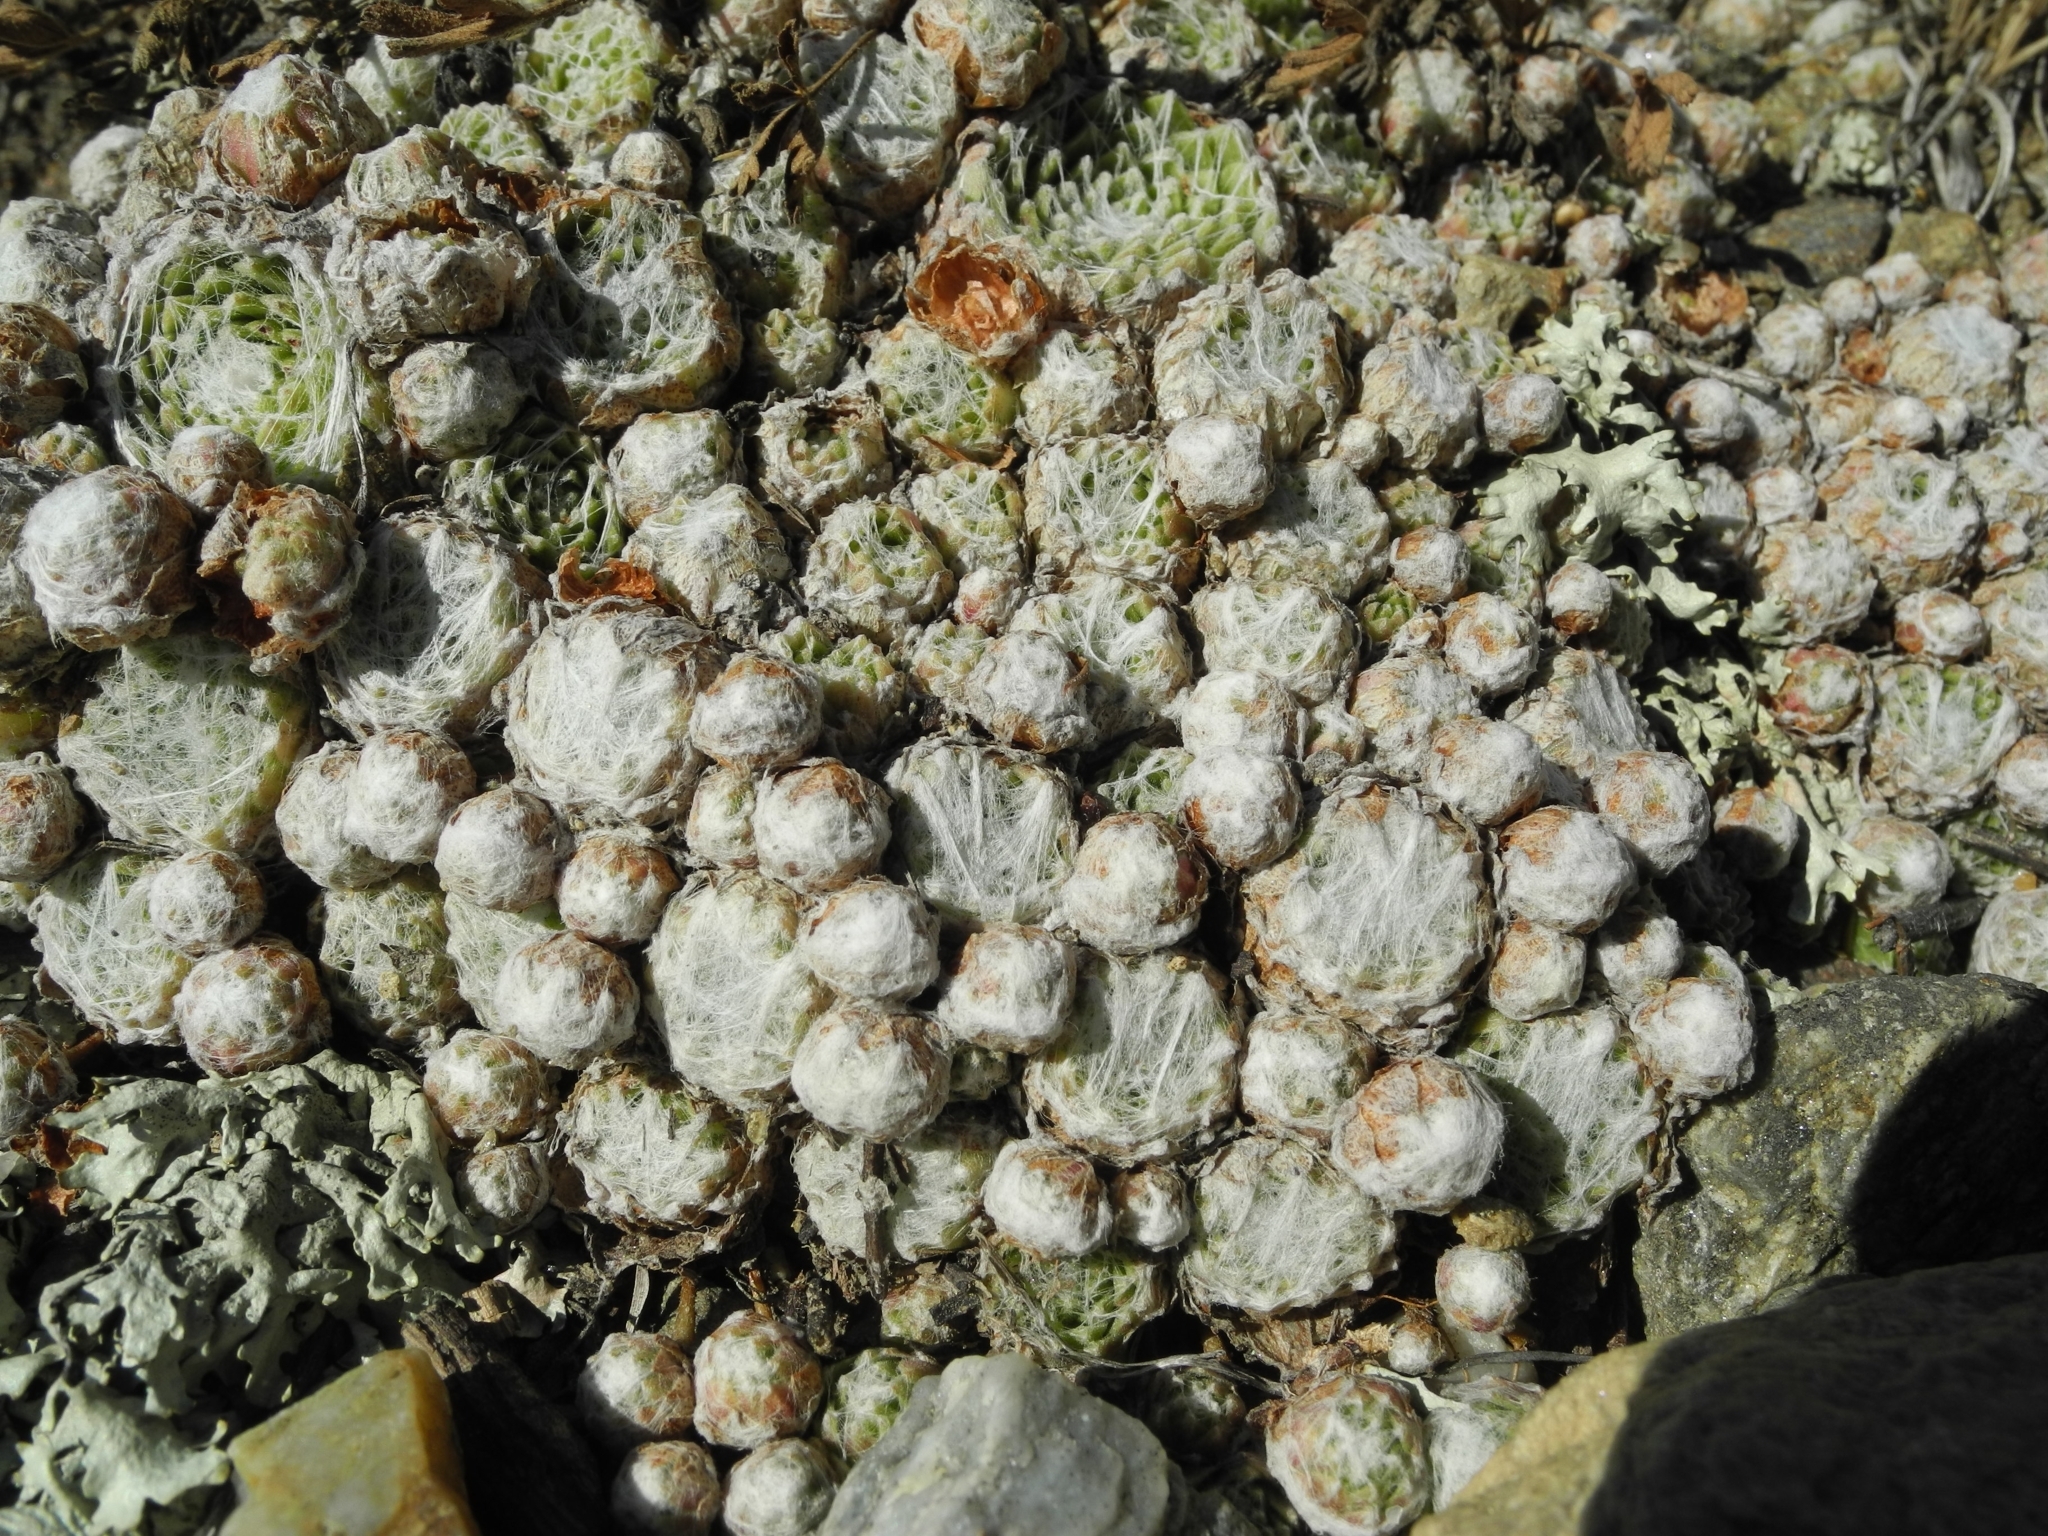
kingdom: Plantae
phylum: Tracheophyta
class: Magnoliopsida
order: Saxifragales
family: Crassulaceae
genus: Sempervivum
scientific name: Sempervivum arachnoideum
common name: Cobweb house-leek
